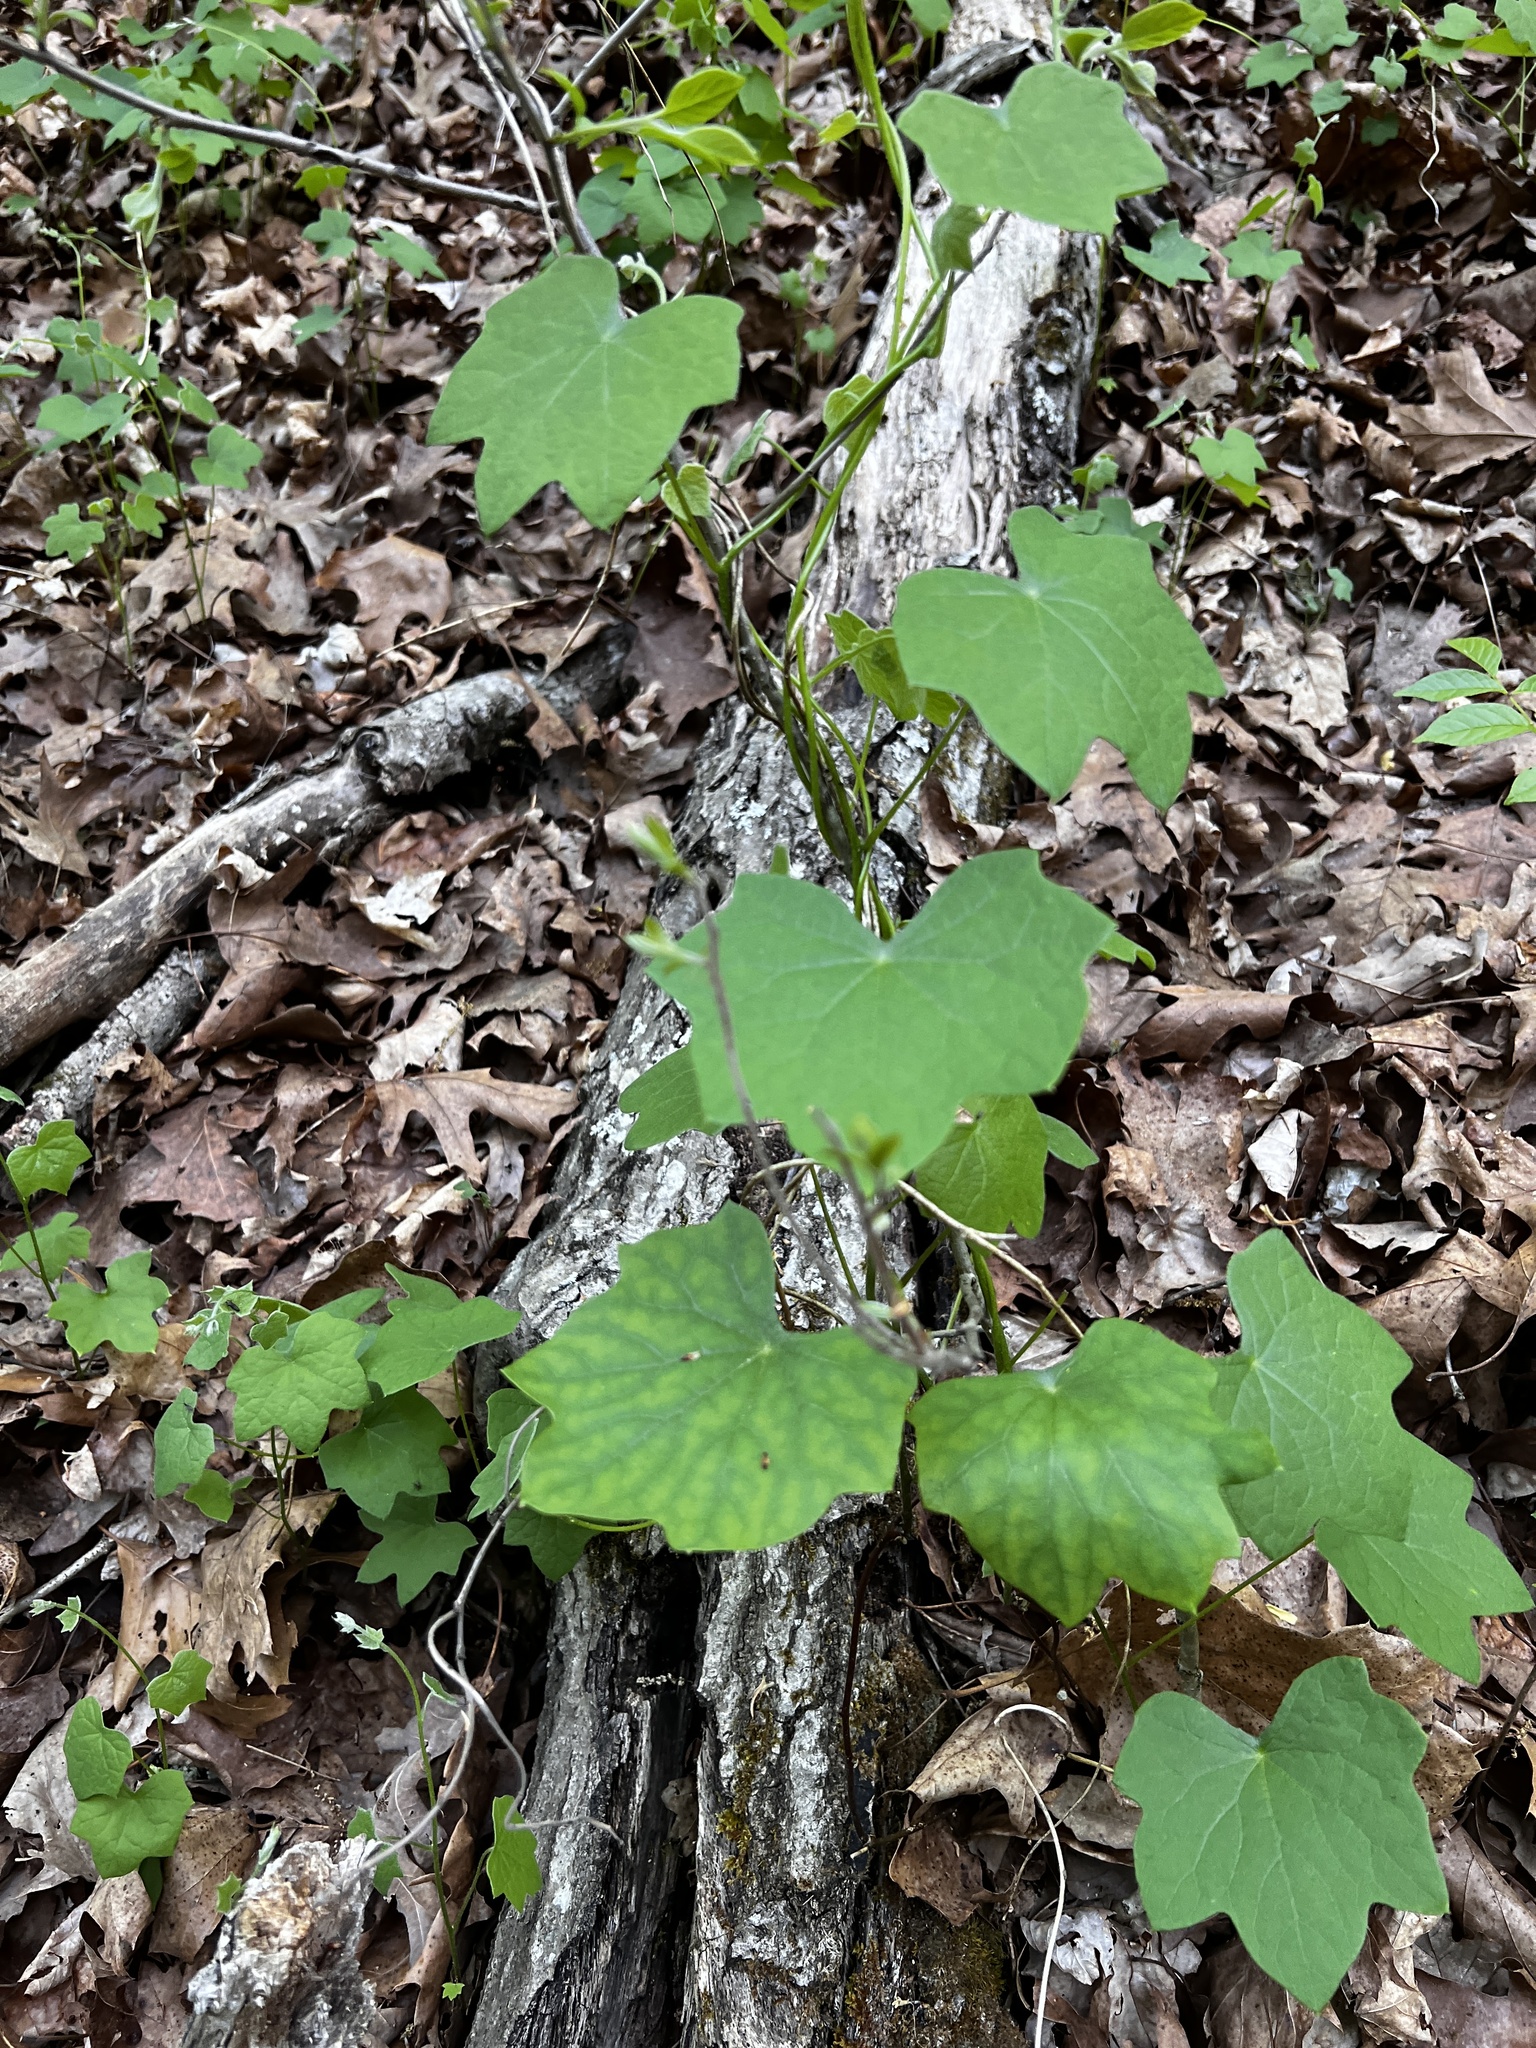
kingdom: Plantae
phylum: Tracheophyta
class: Magnoliopsida
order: Ranunculales
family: Menispermaceae
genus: Menispermum
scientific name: Menispermum canadense
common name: Moonseed
